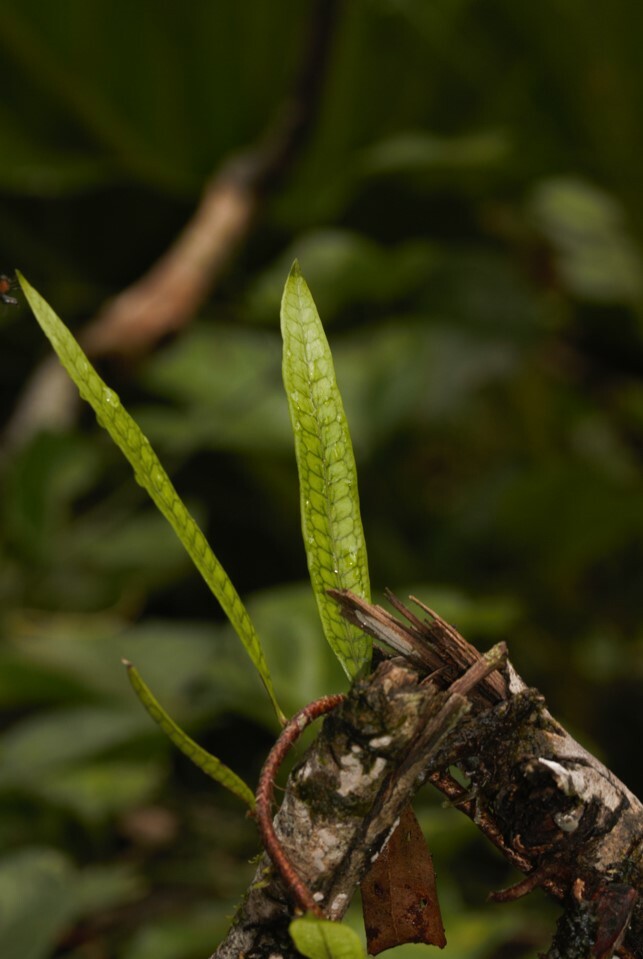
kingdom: Plantae
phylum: Tracheophyta
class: Polypodiopsida
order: Polypodiales
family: Polypodiaceae
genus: Microgramma
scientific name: Microgramma lycopodioides
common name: Bastard catclaw
